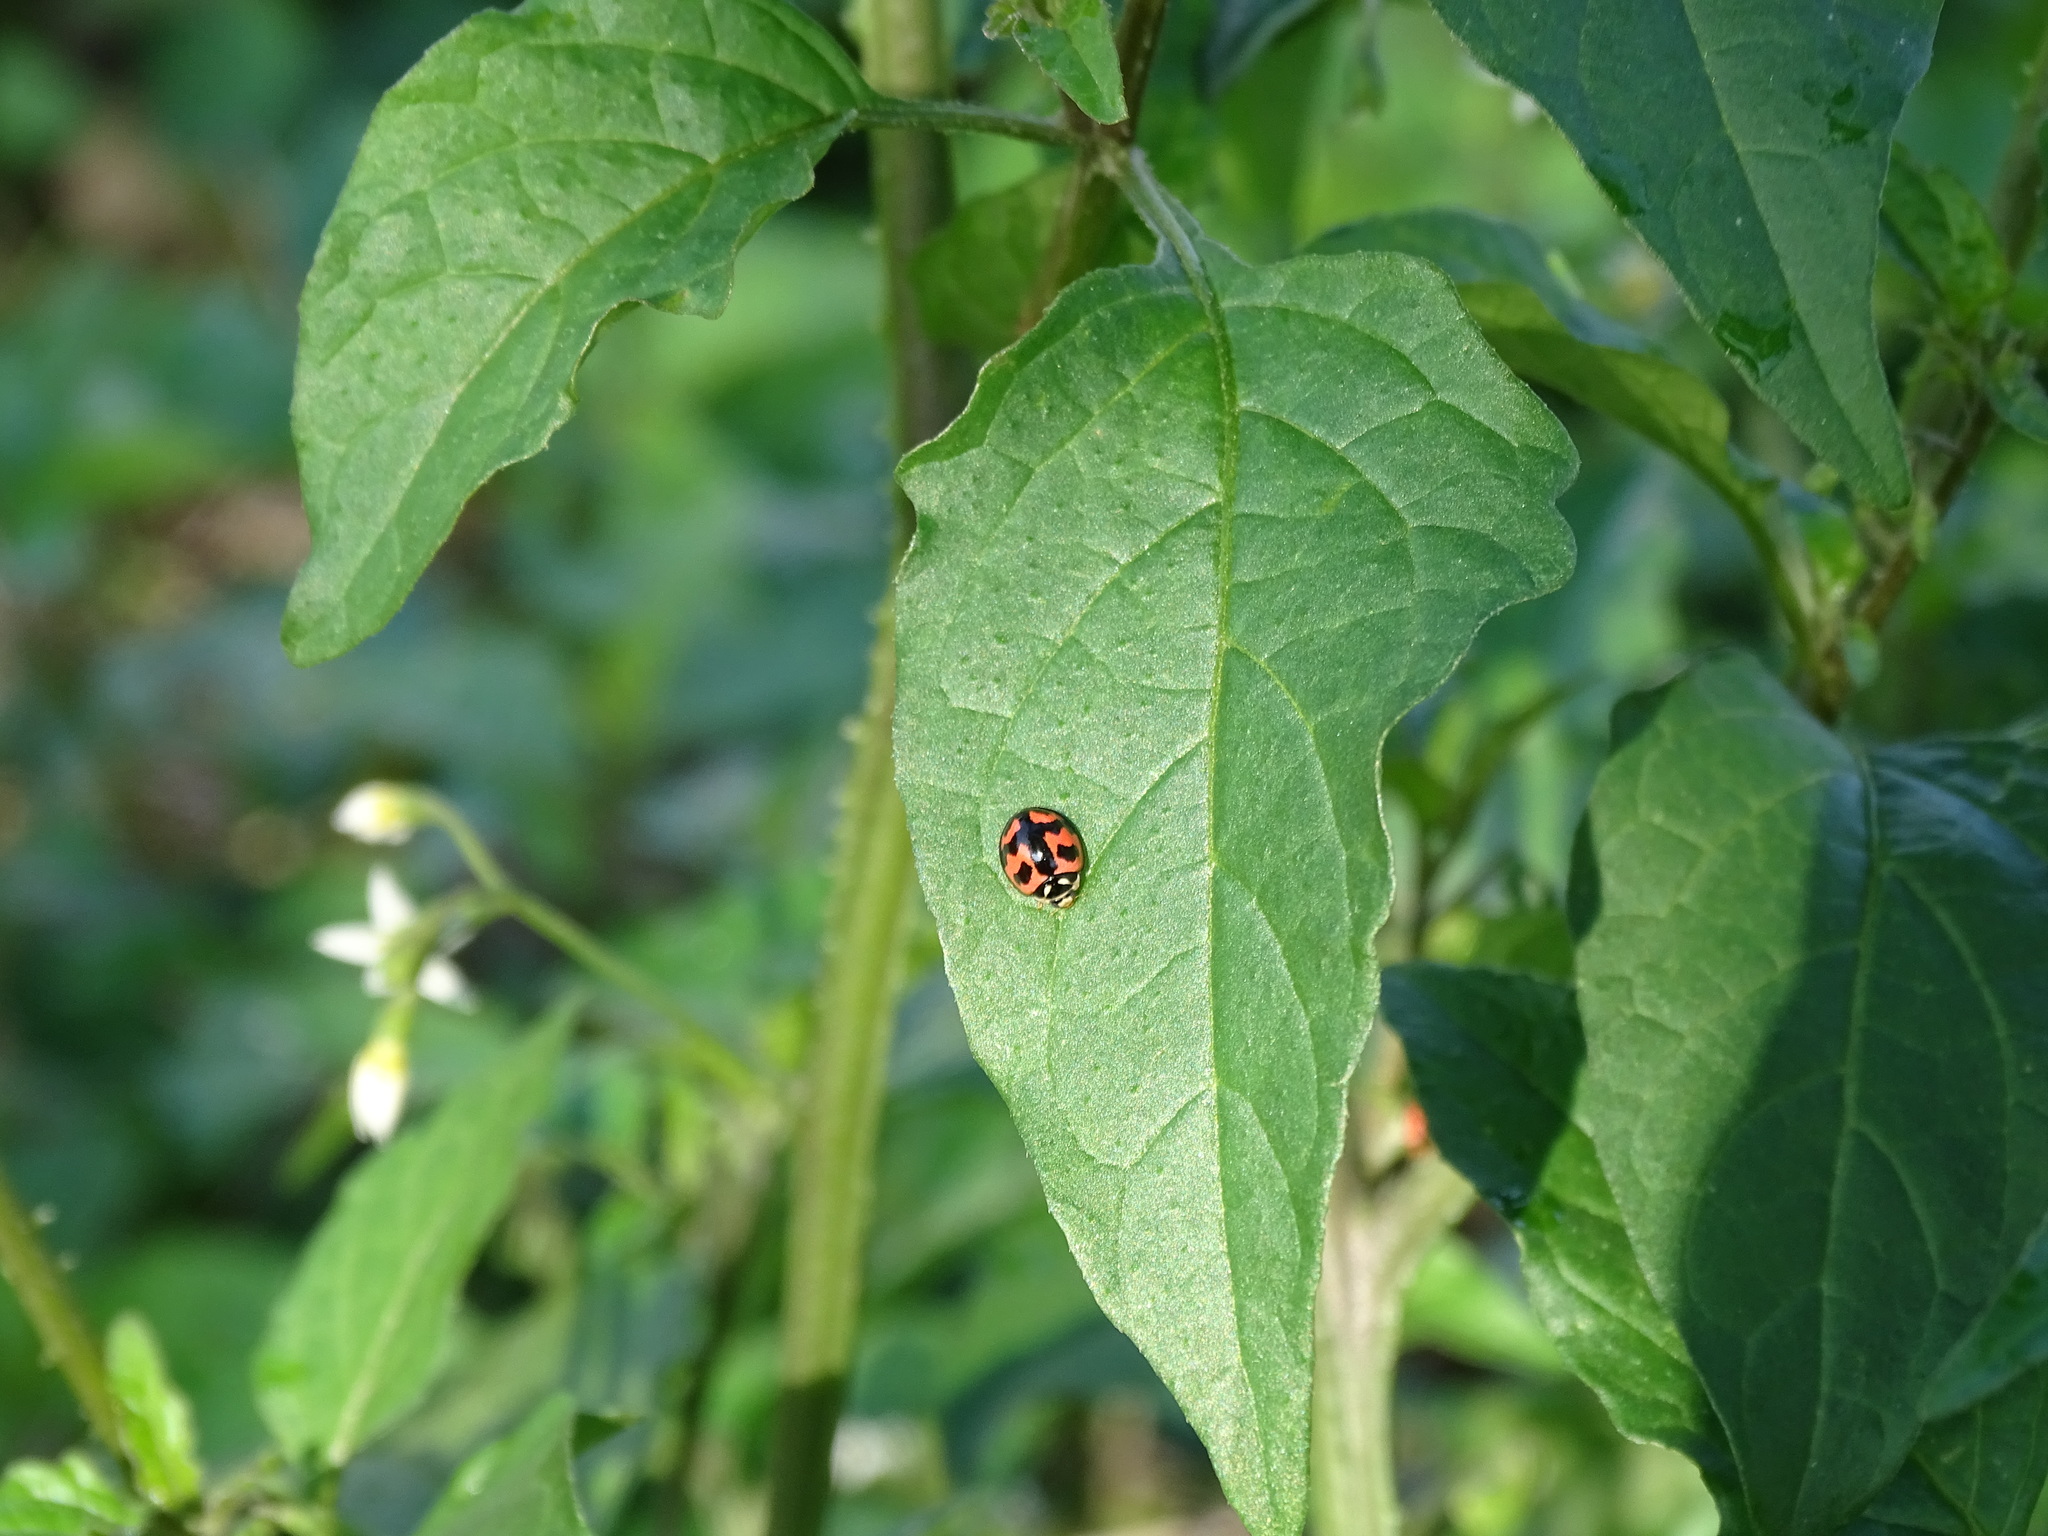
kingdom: Animalia
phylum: Arthropoda
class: Insecta
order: Coleoptera
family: Coccinellidae
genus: Cheilomenes
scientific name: Cheilomenes sexmaculata
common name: Ladybird beetle
